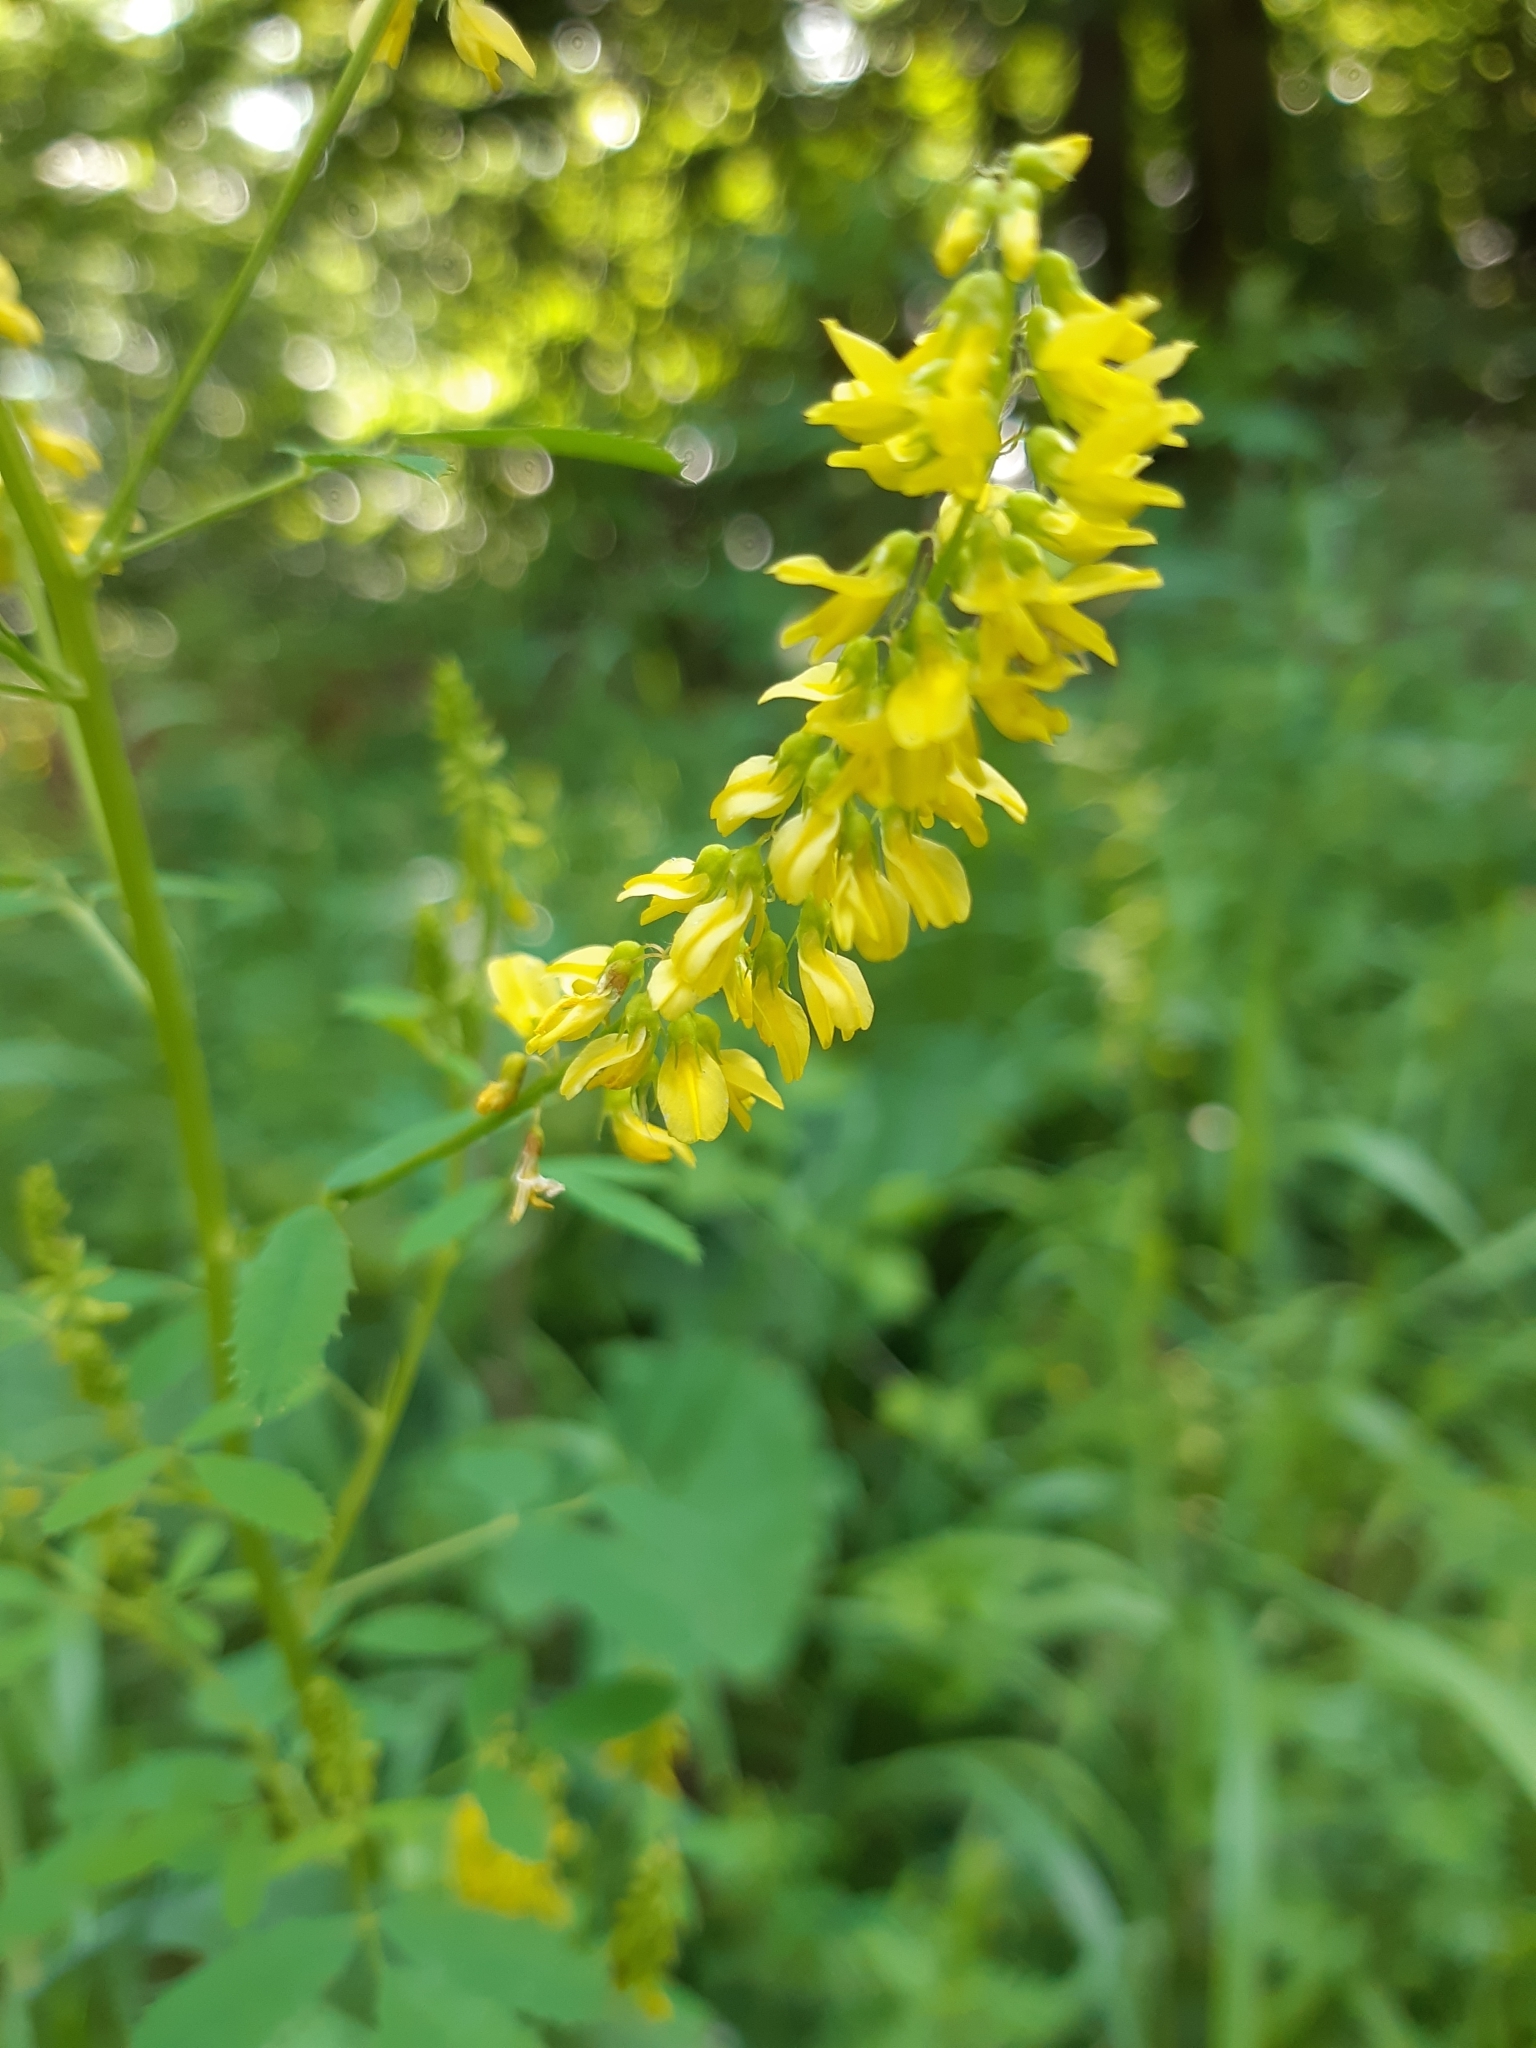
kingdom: Plantae
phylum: Tracheophyta
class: Magnoliopsida
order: Fabales
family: Fabaceae
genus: Melilotus
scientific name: Melilotus officinalis
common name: Sweetclover
